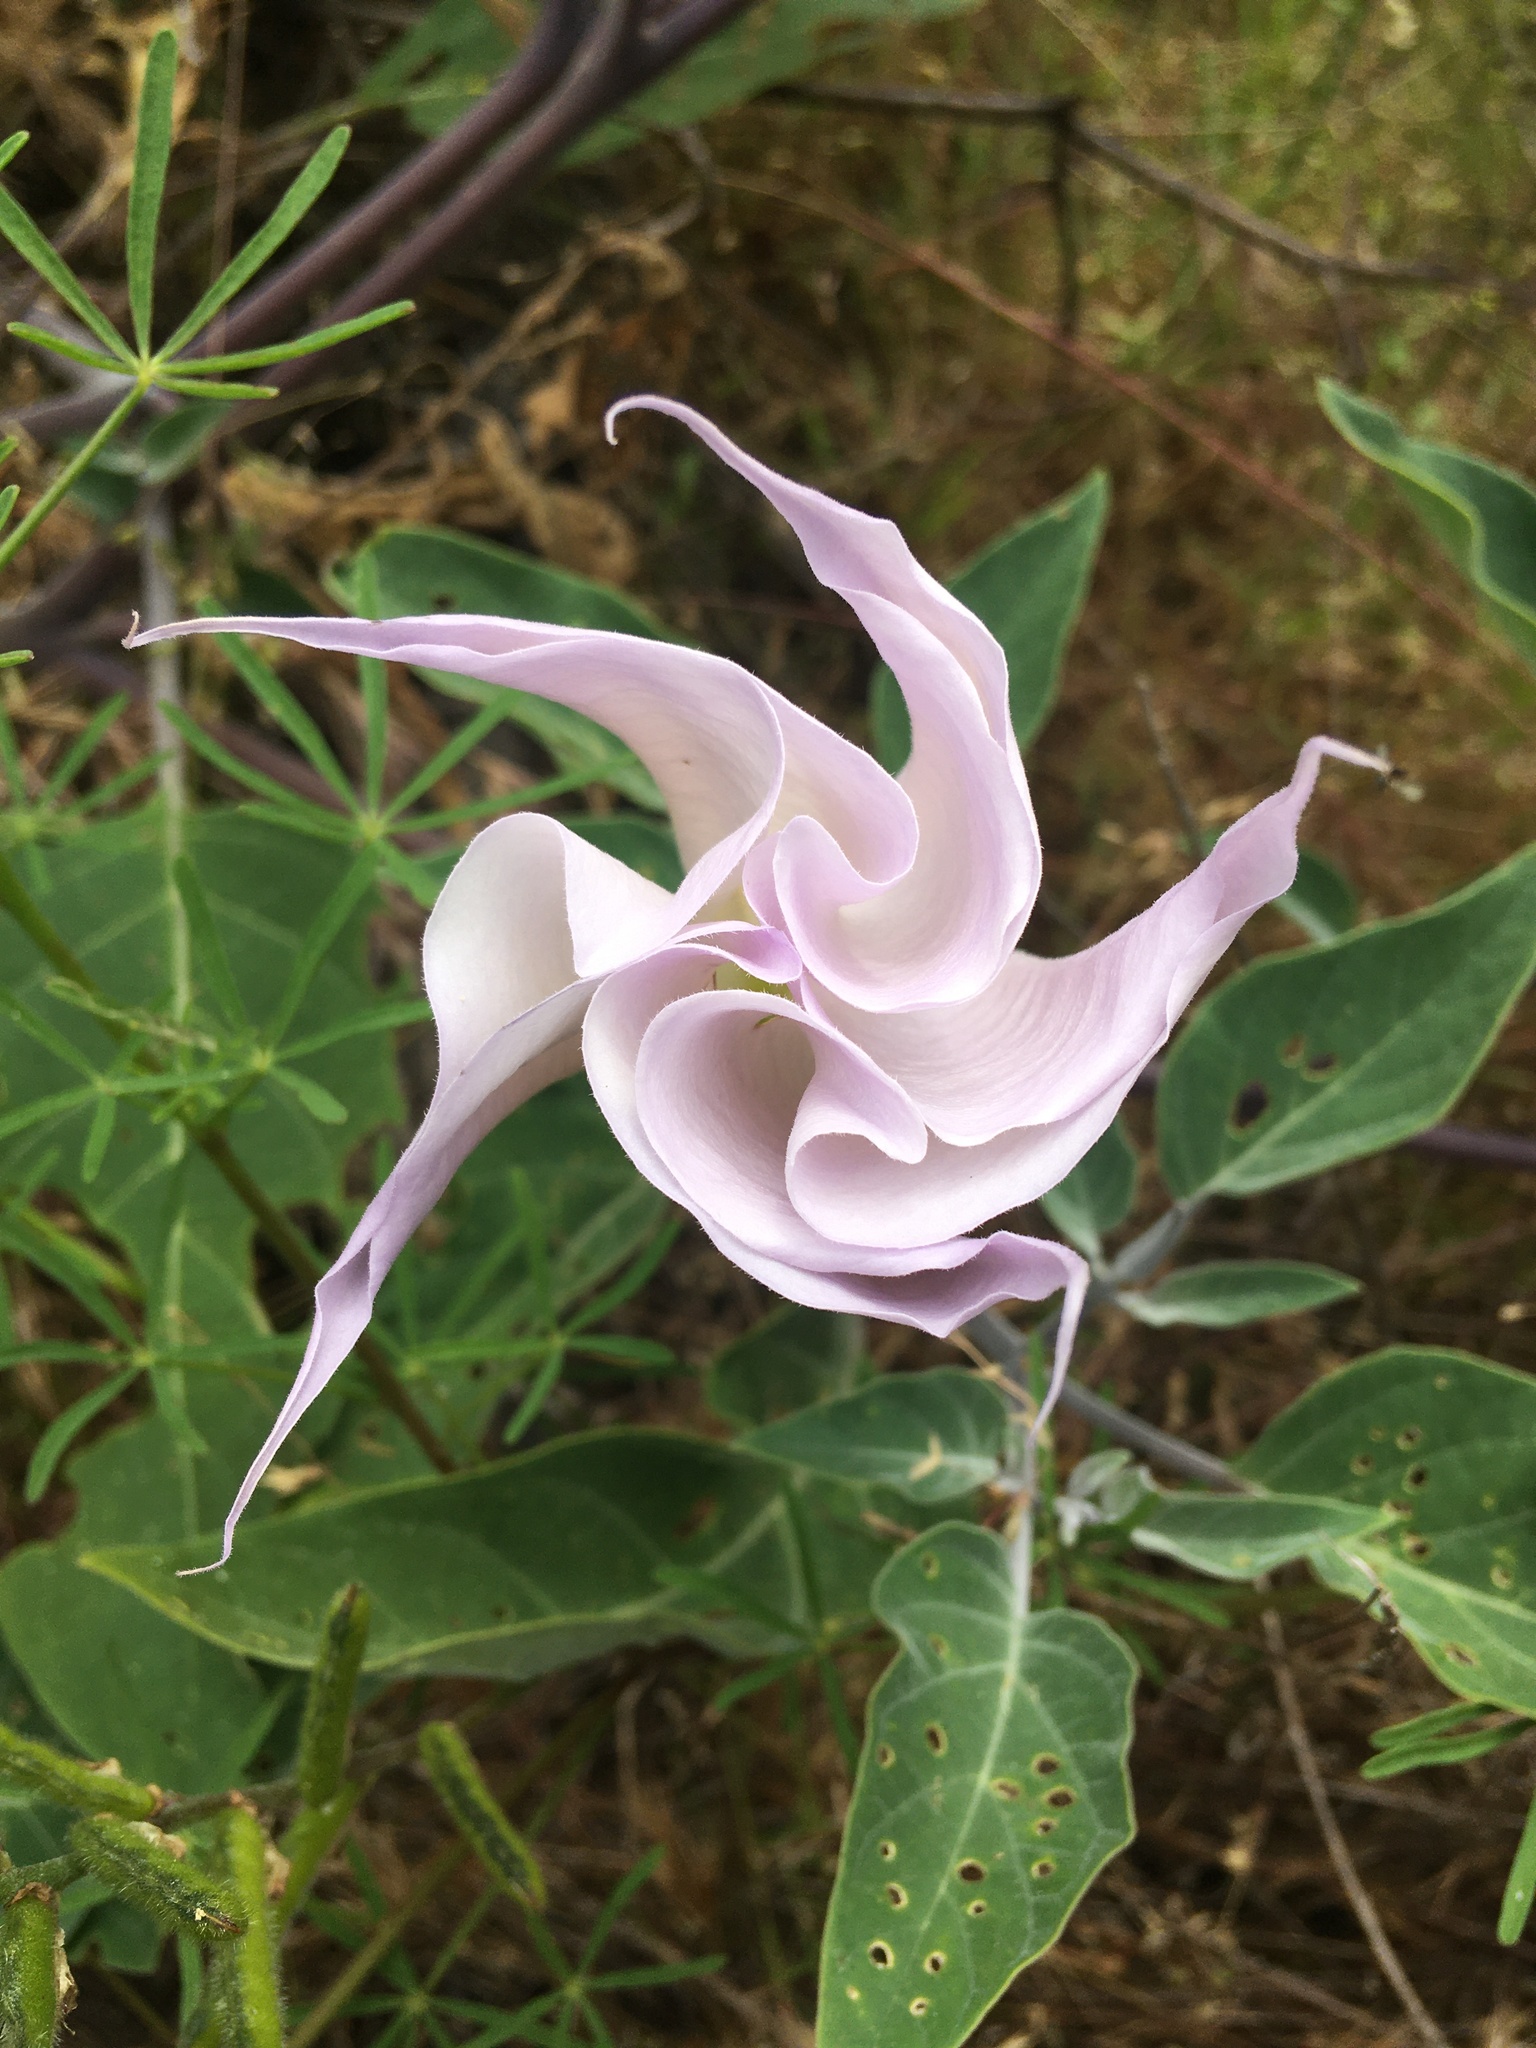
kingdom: Plantae
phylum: Tracheophyta
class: Magnoliopsida
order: Solanales
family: Solanaceae
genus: Datura
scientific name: Datura wrightii
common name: Sacred thorn-apple
